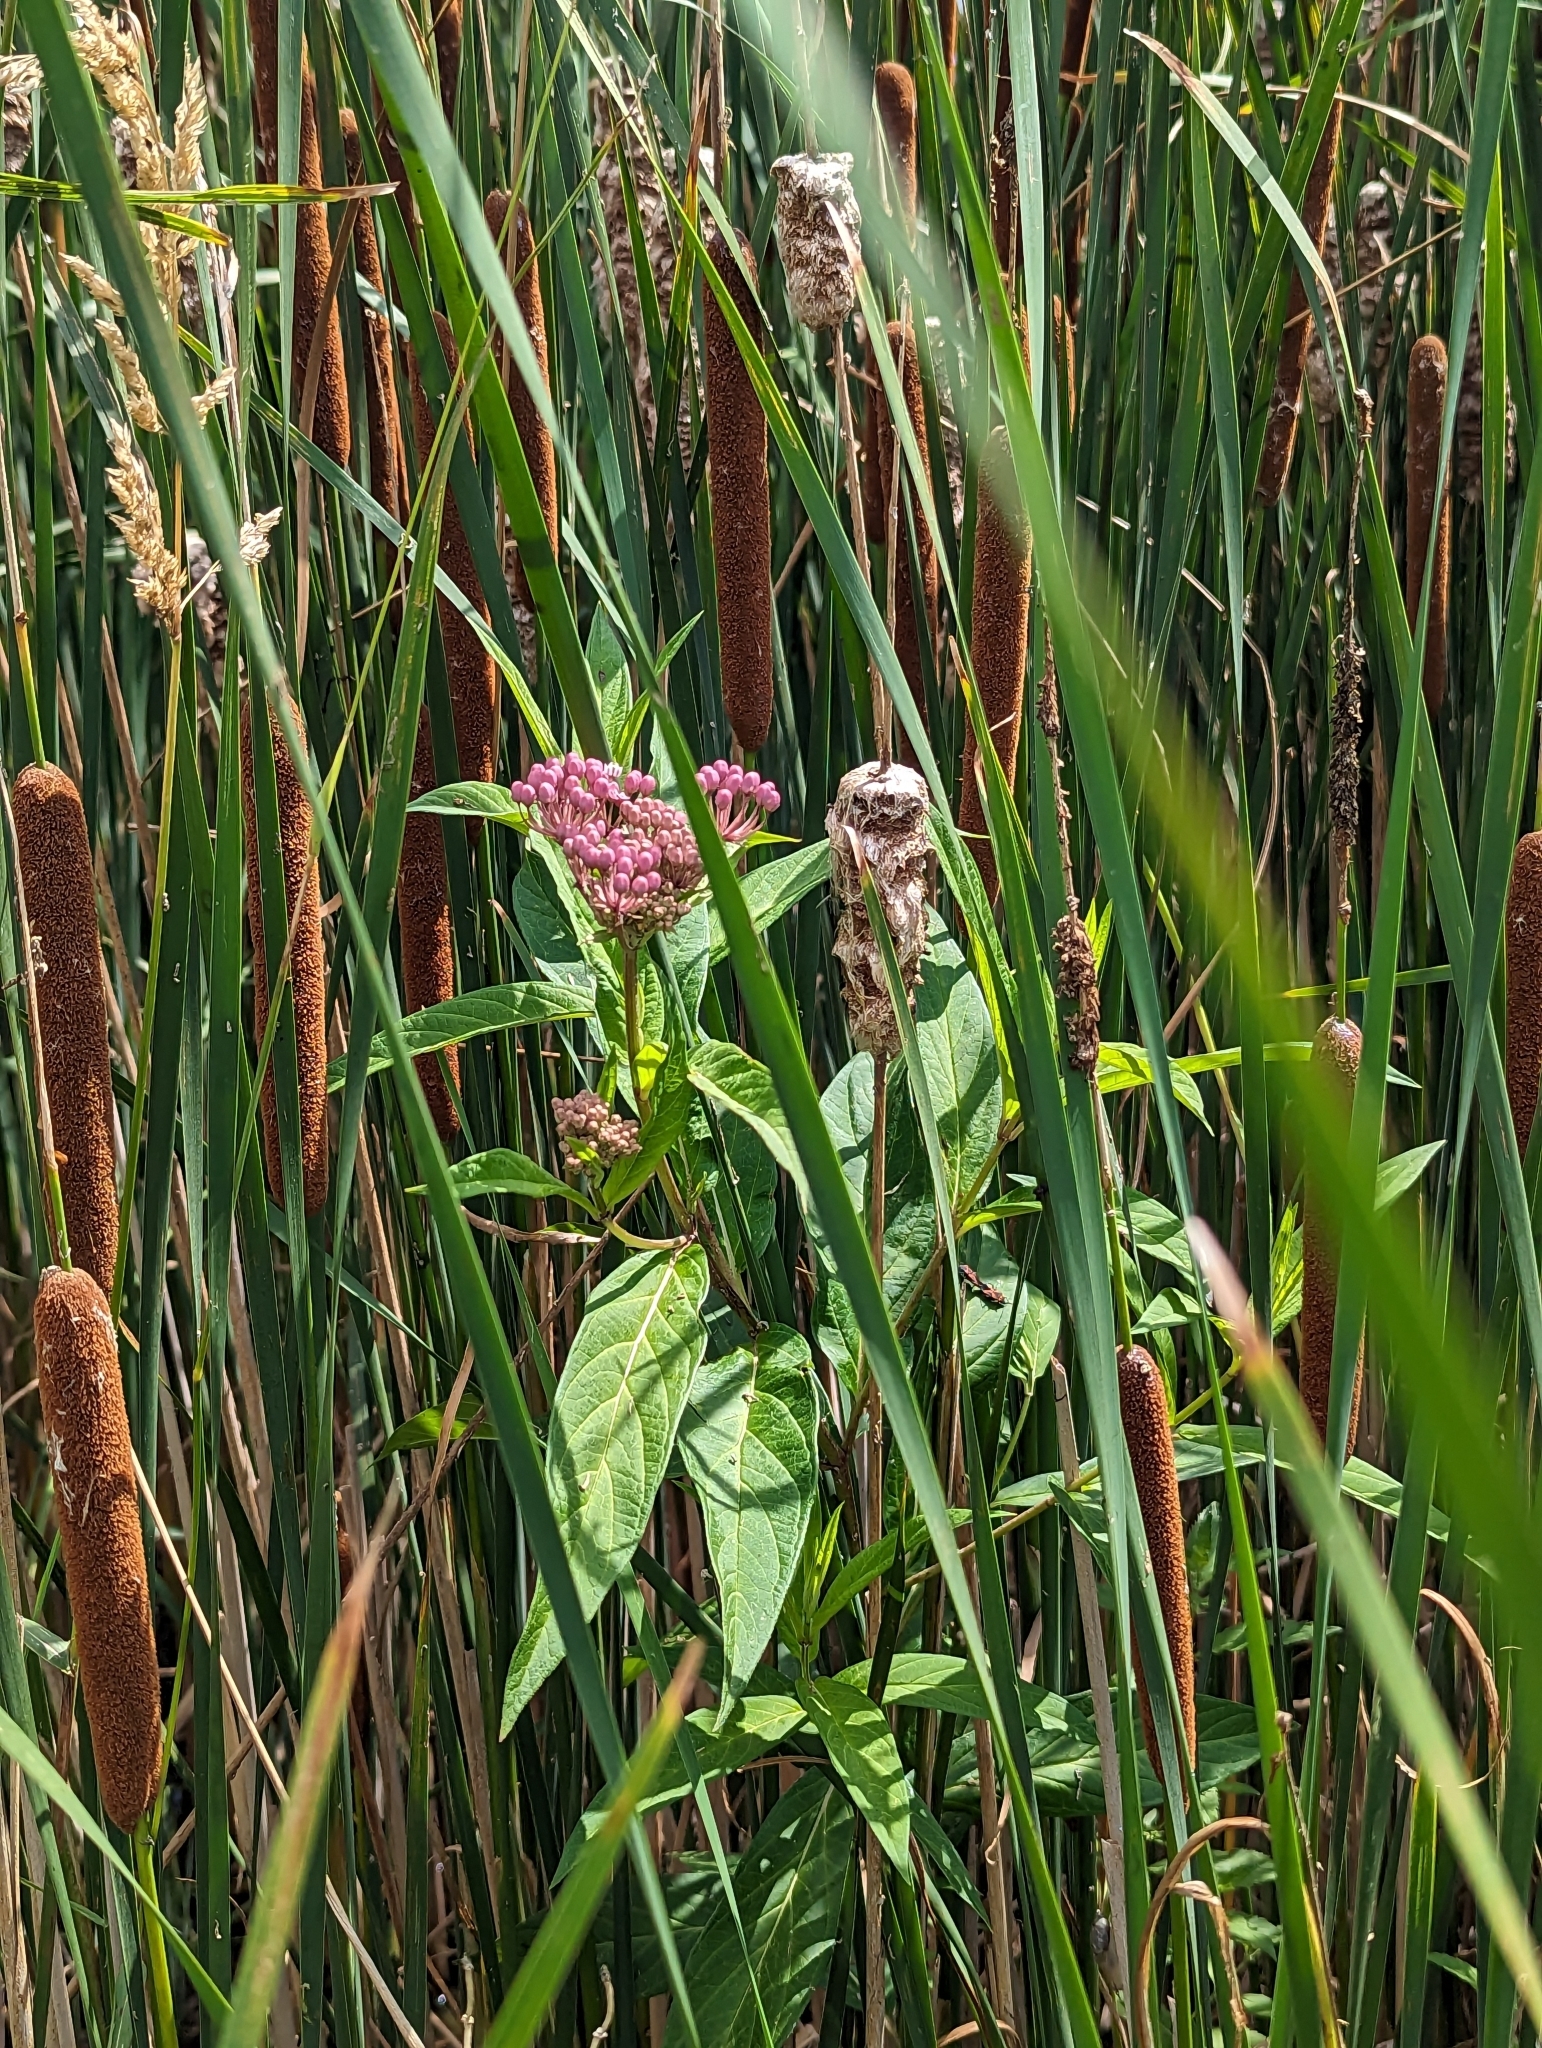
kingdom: Plantae
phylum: Tracheophyta
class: Magnoliopsida
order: Gentianales
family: Apocynaceae
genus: Asclepias
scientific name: Asclepias incarnata
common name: Swamp milkweed
